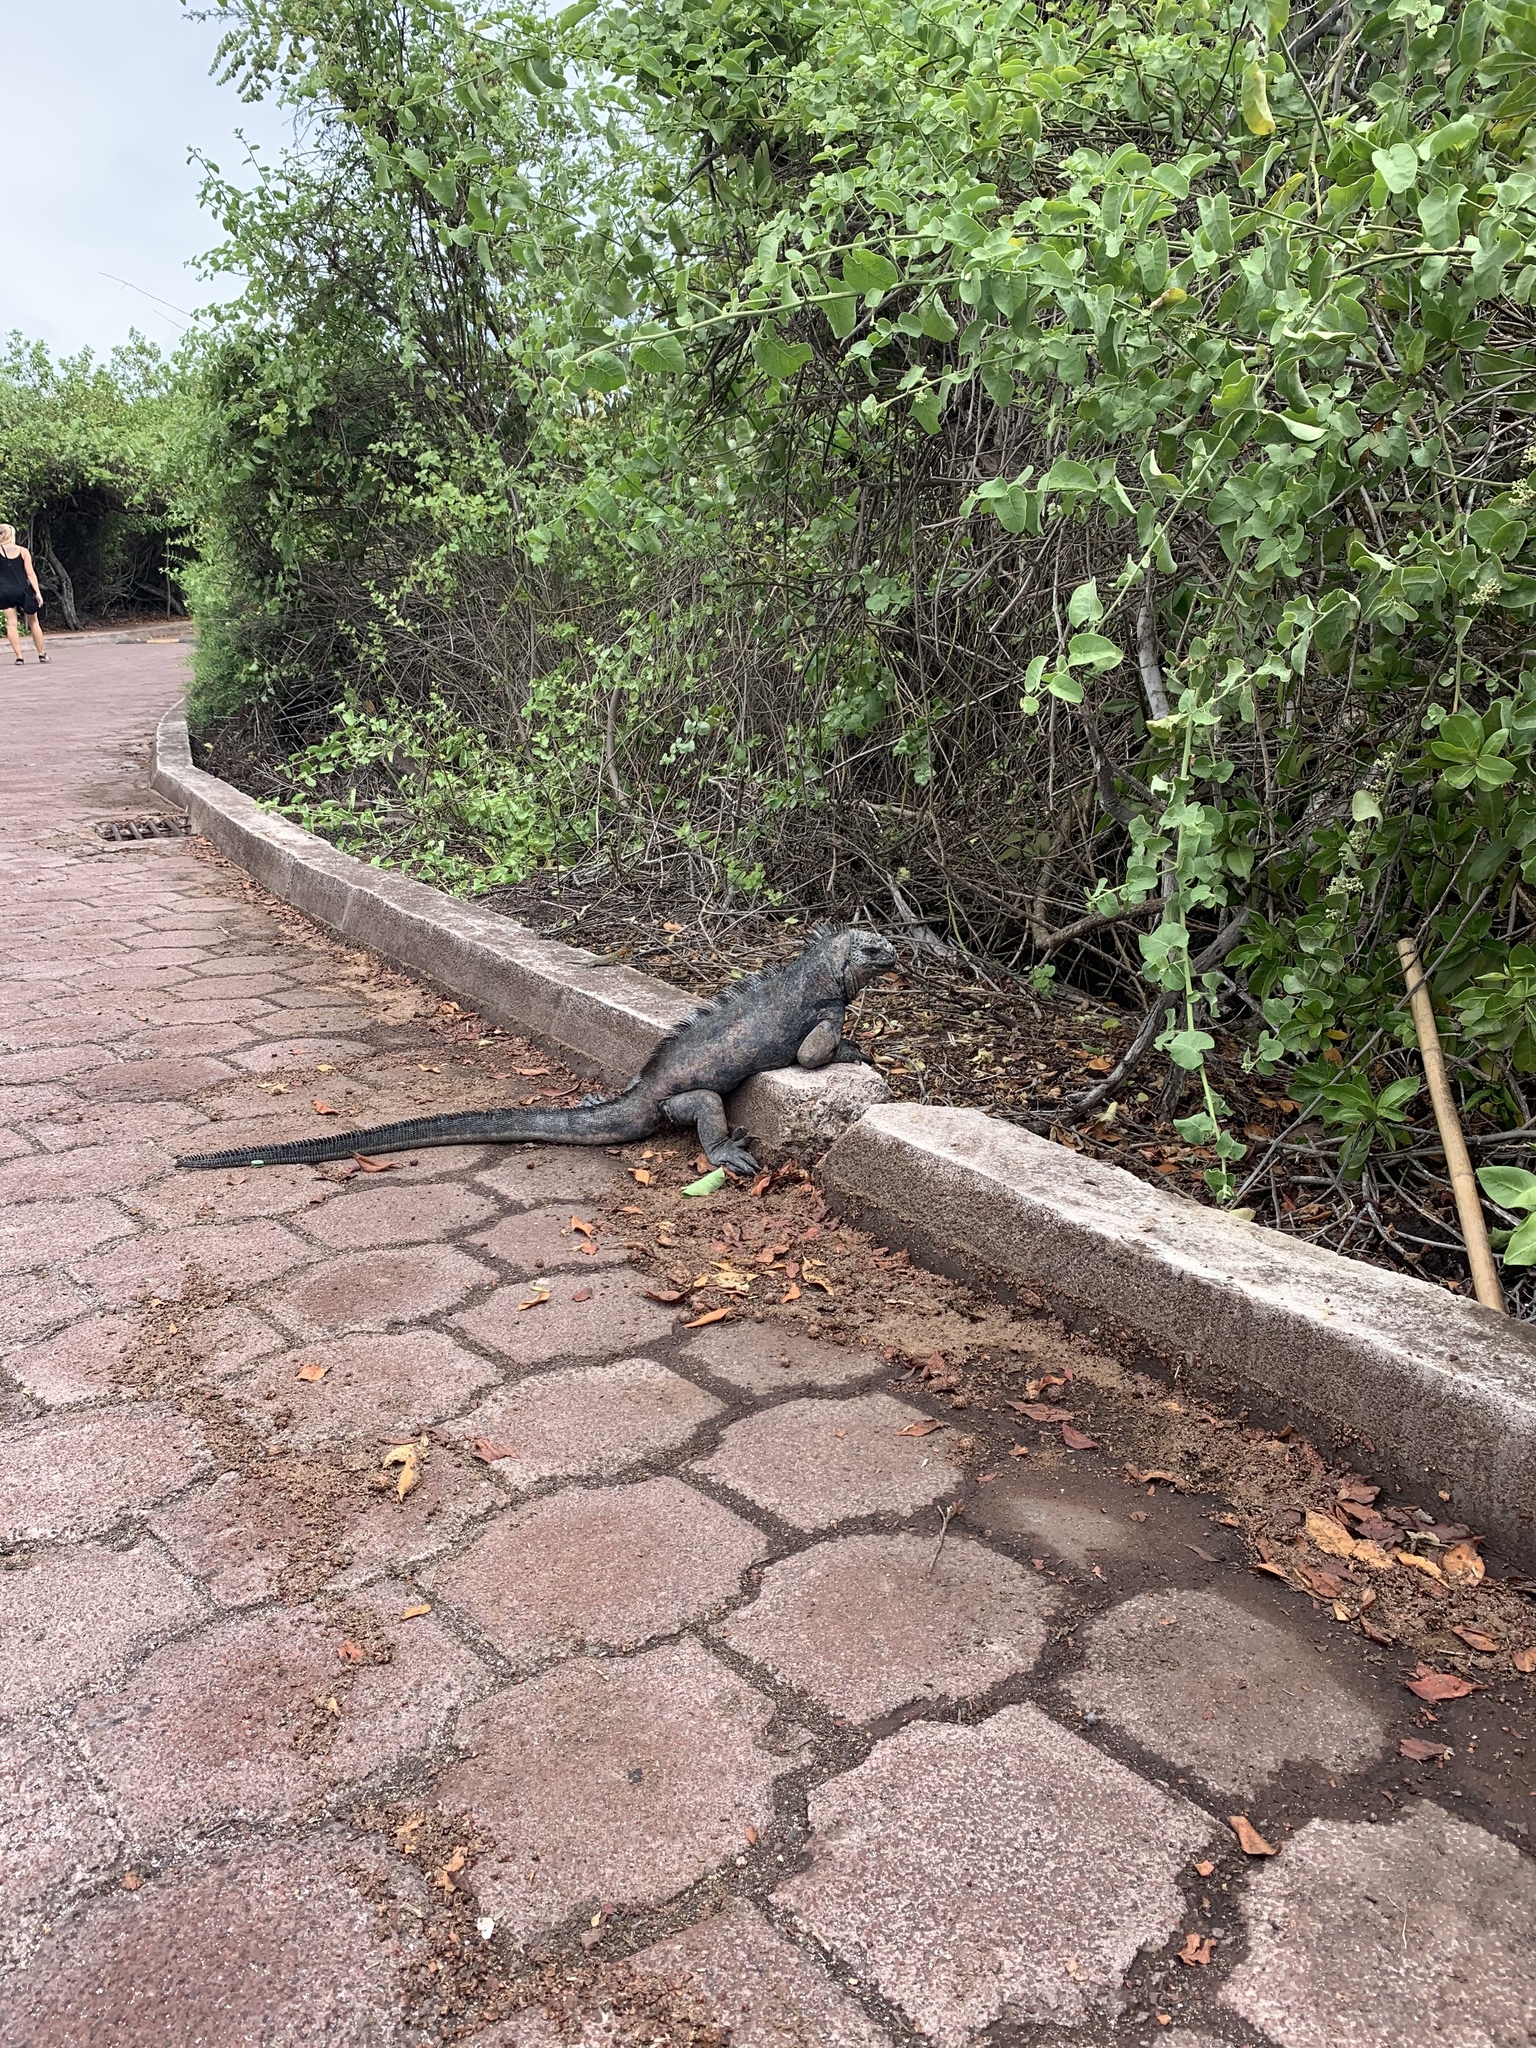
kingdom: Animalia
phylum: Chordata
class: Squamata
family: Iguanidae
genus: Amblyrhynchus
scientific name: Amblyrhynchus cristatus
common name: Marine iguana
